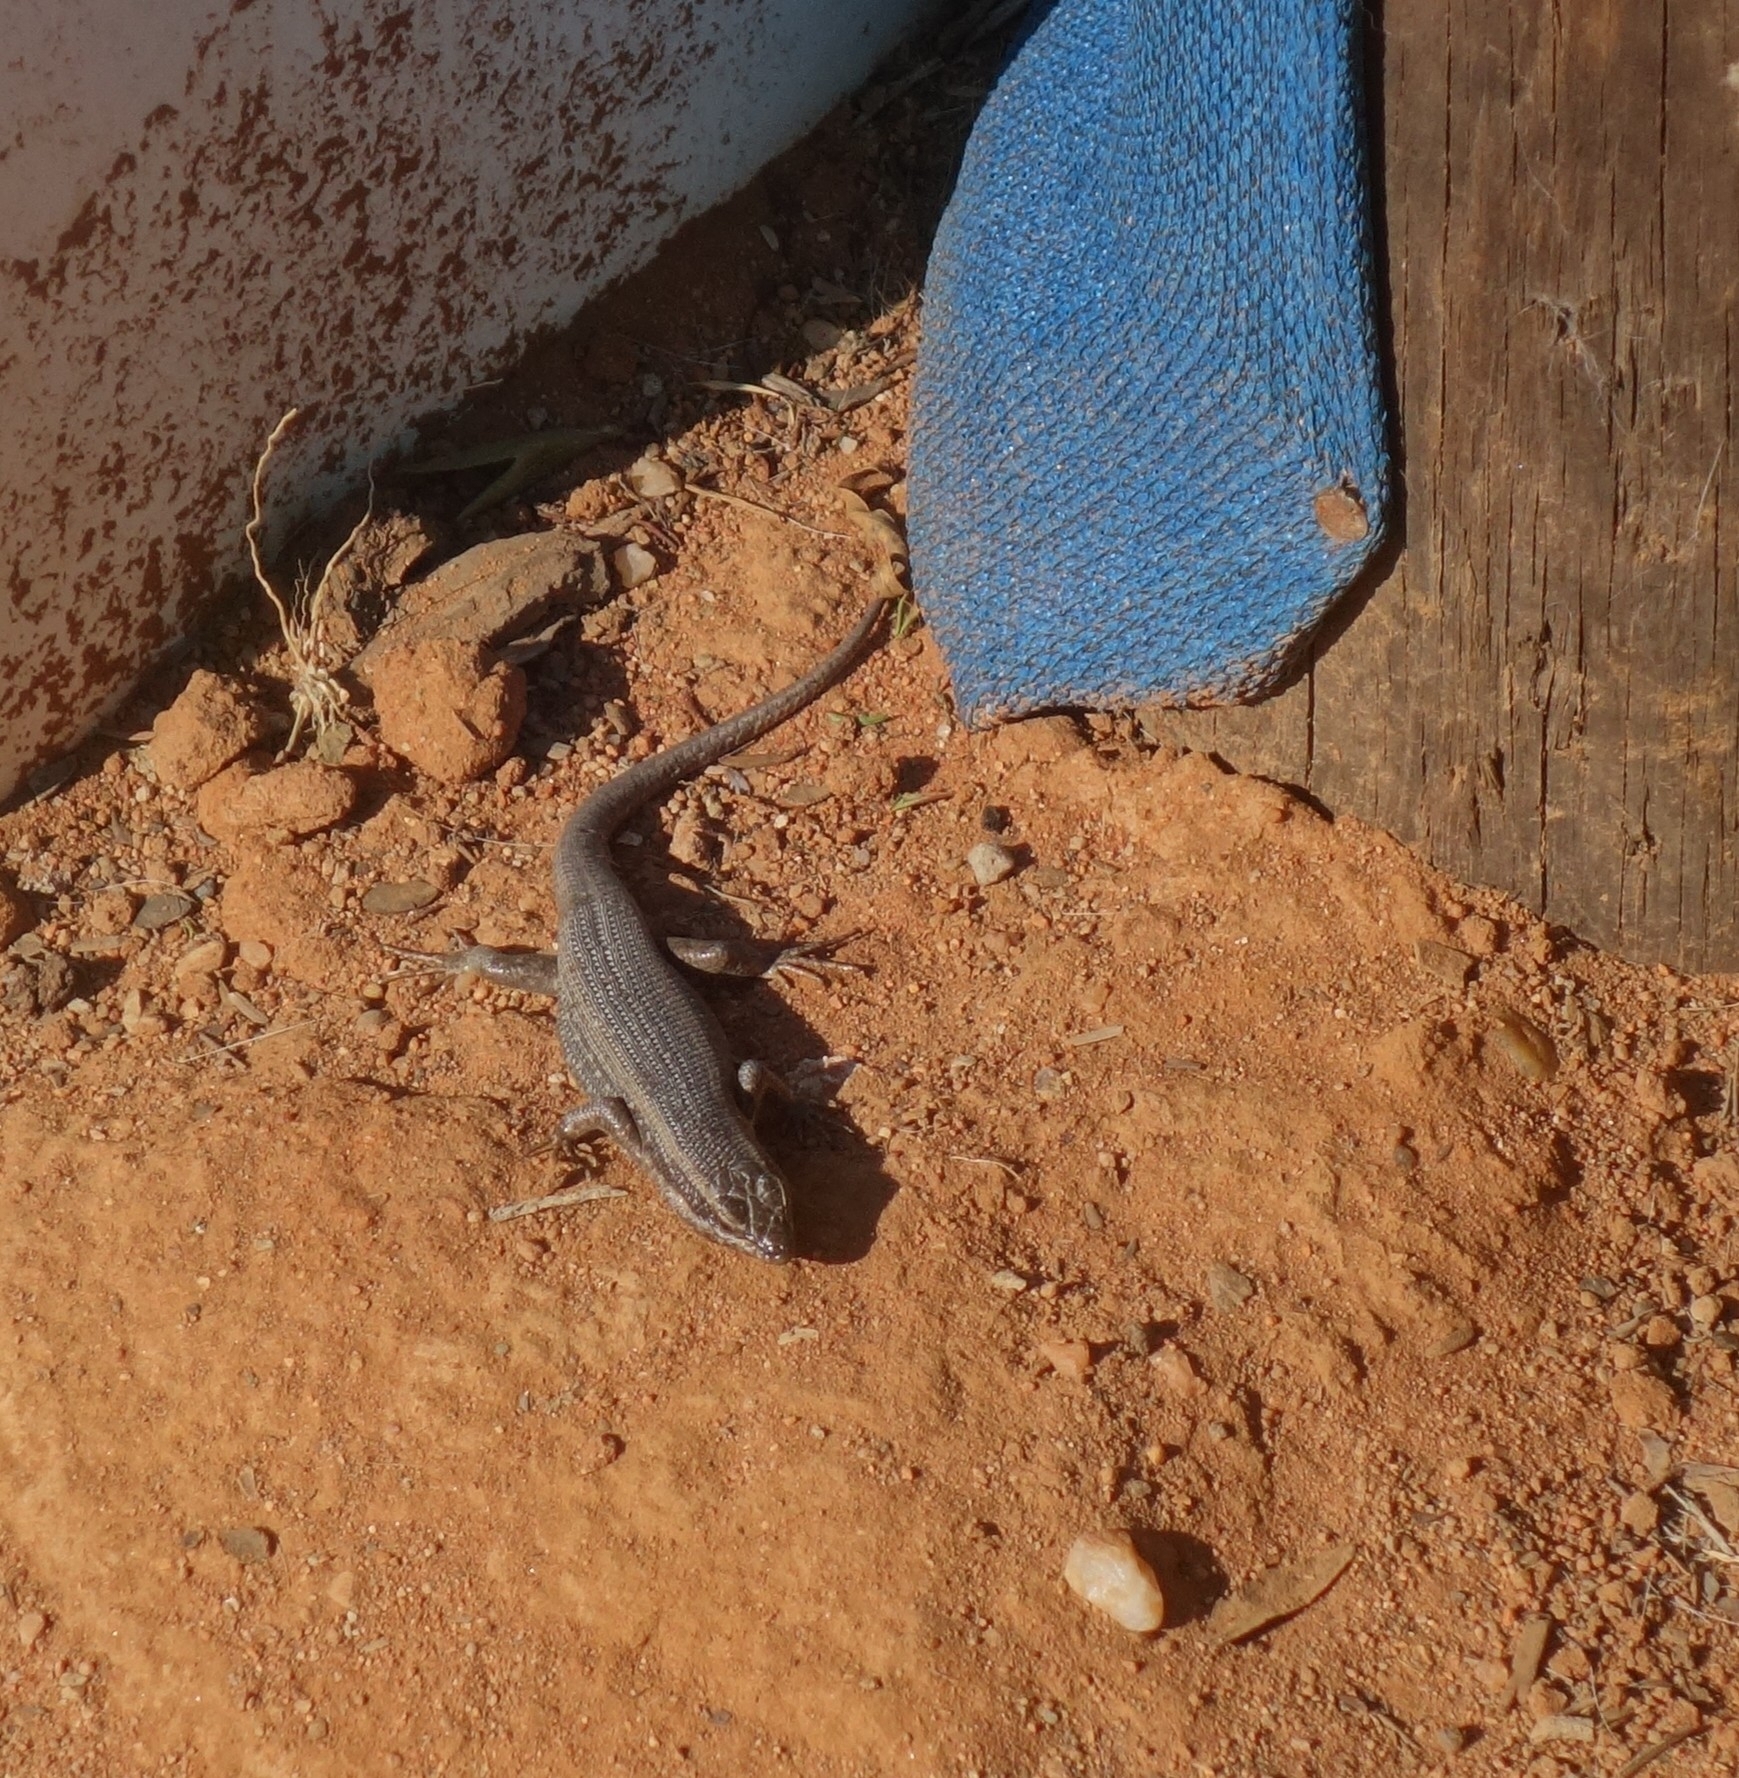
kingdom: Animalia
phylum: Chordata
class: Squamata
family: Scincidae
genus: Trachylepis
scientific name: Trachylepis spilogaster
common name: Kalahari tree skink
